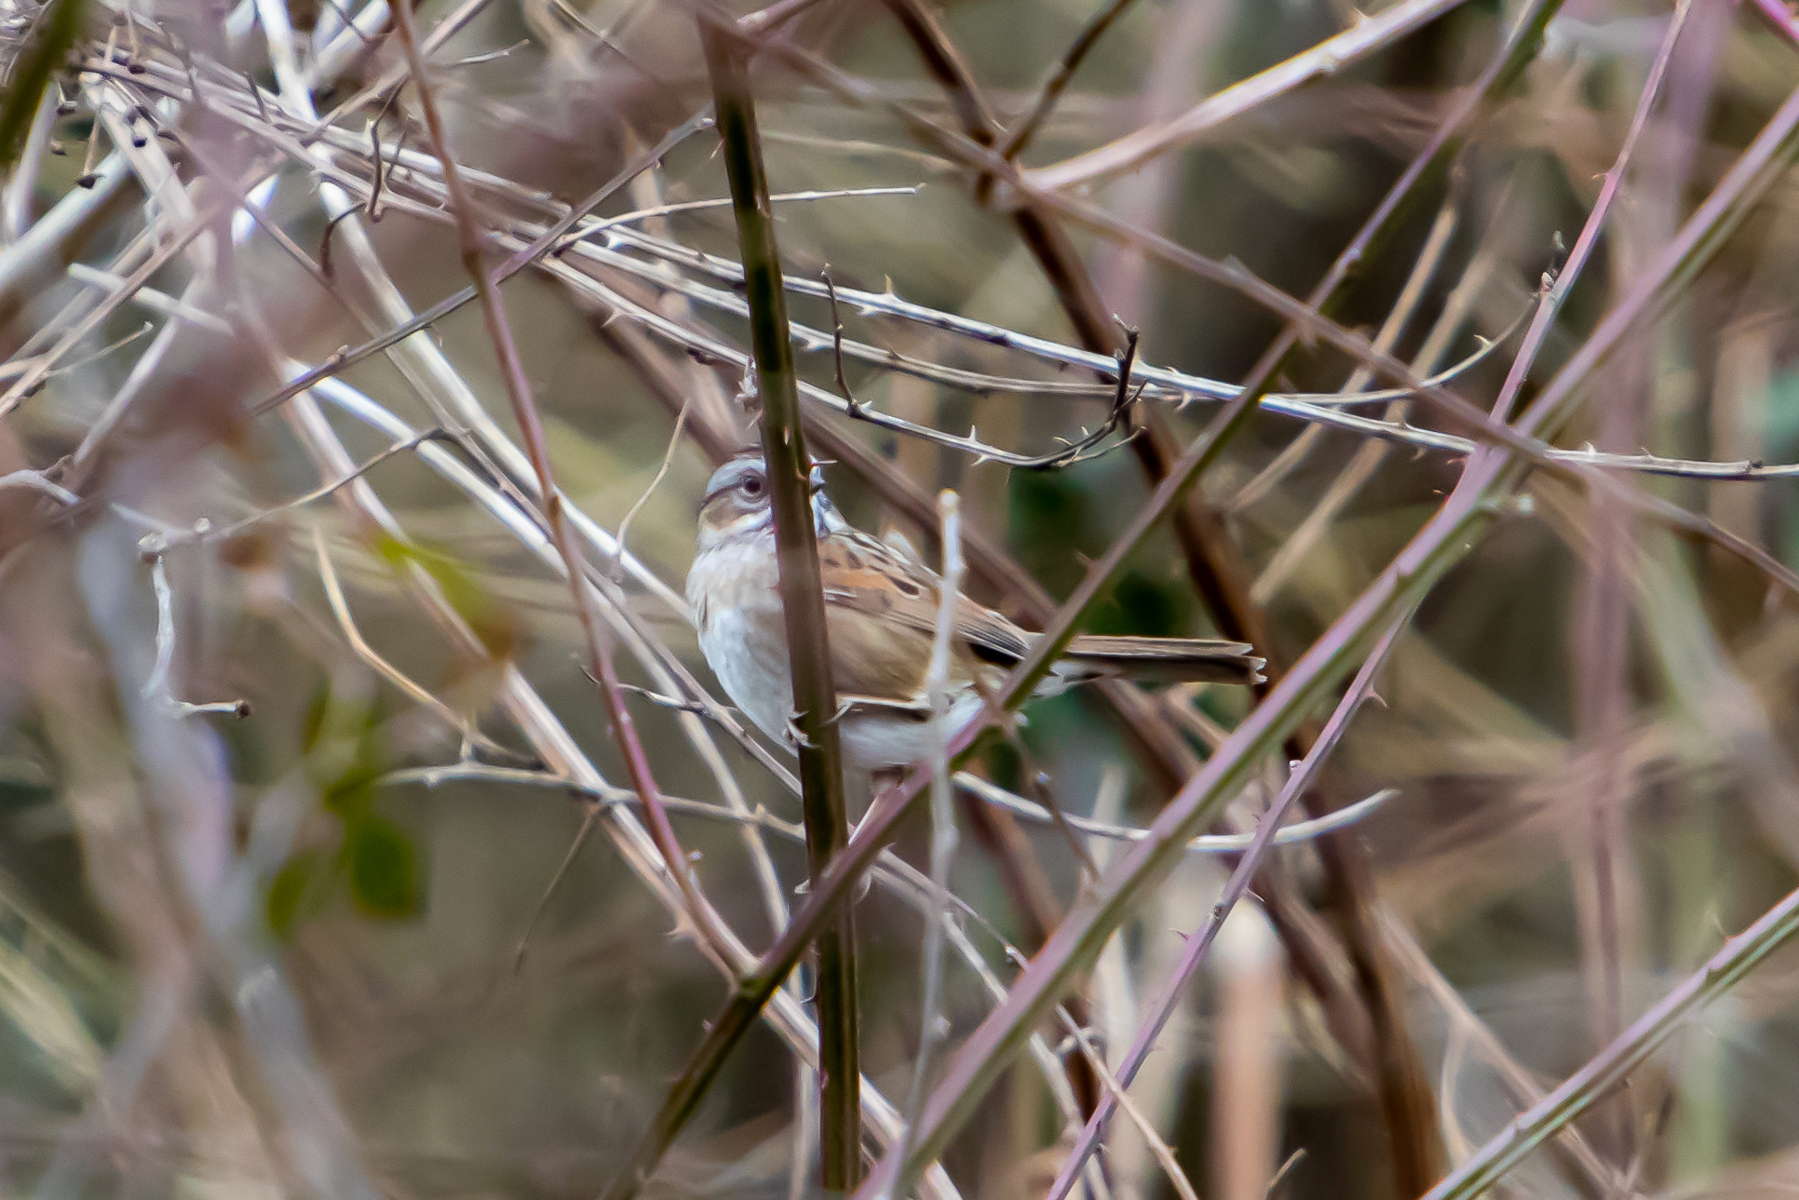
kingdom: Animalia
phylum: Chordata
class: Aves
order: Passeriformes
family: Passerellidae
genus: Melospiza
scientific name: Melospiza georgiana
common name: Swamp sparrow
